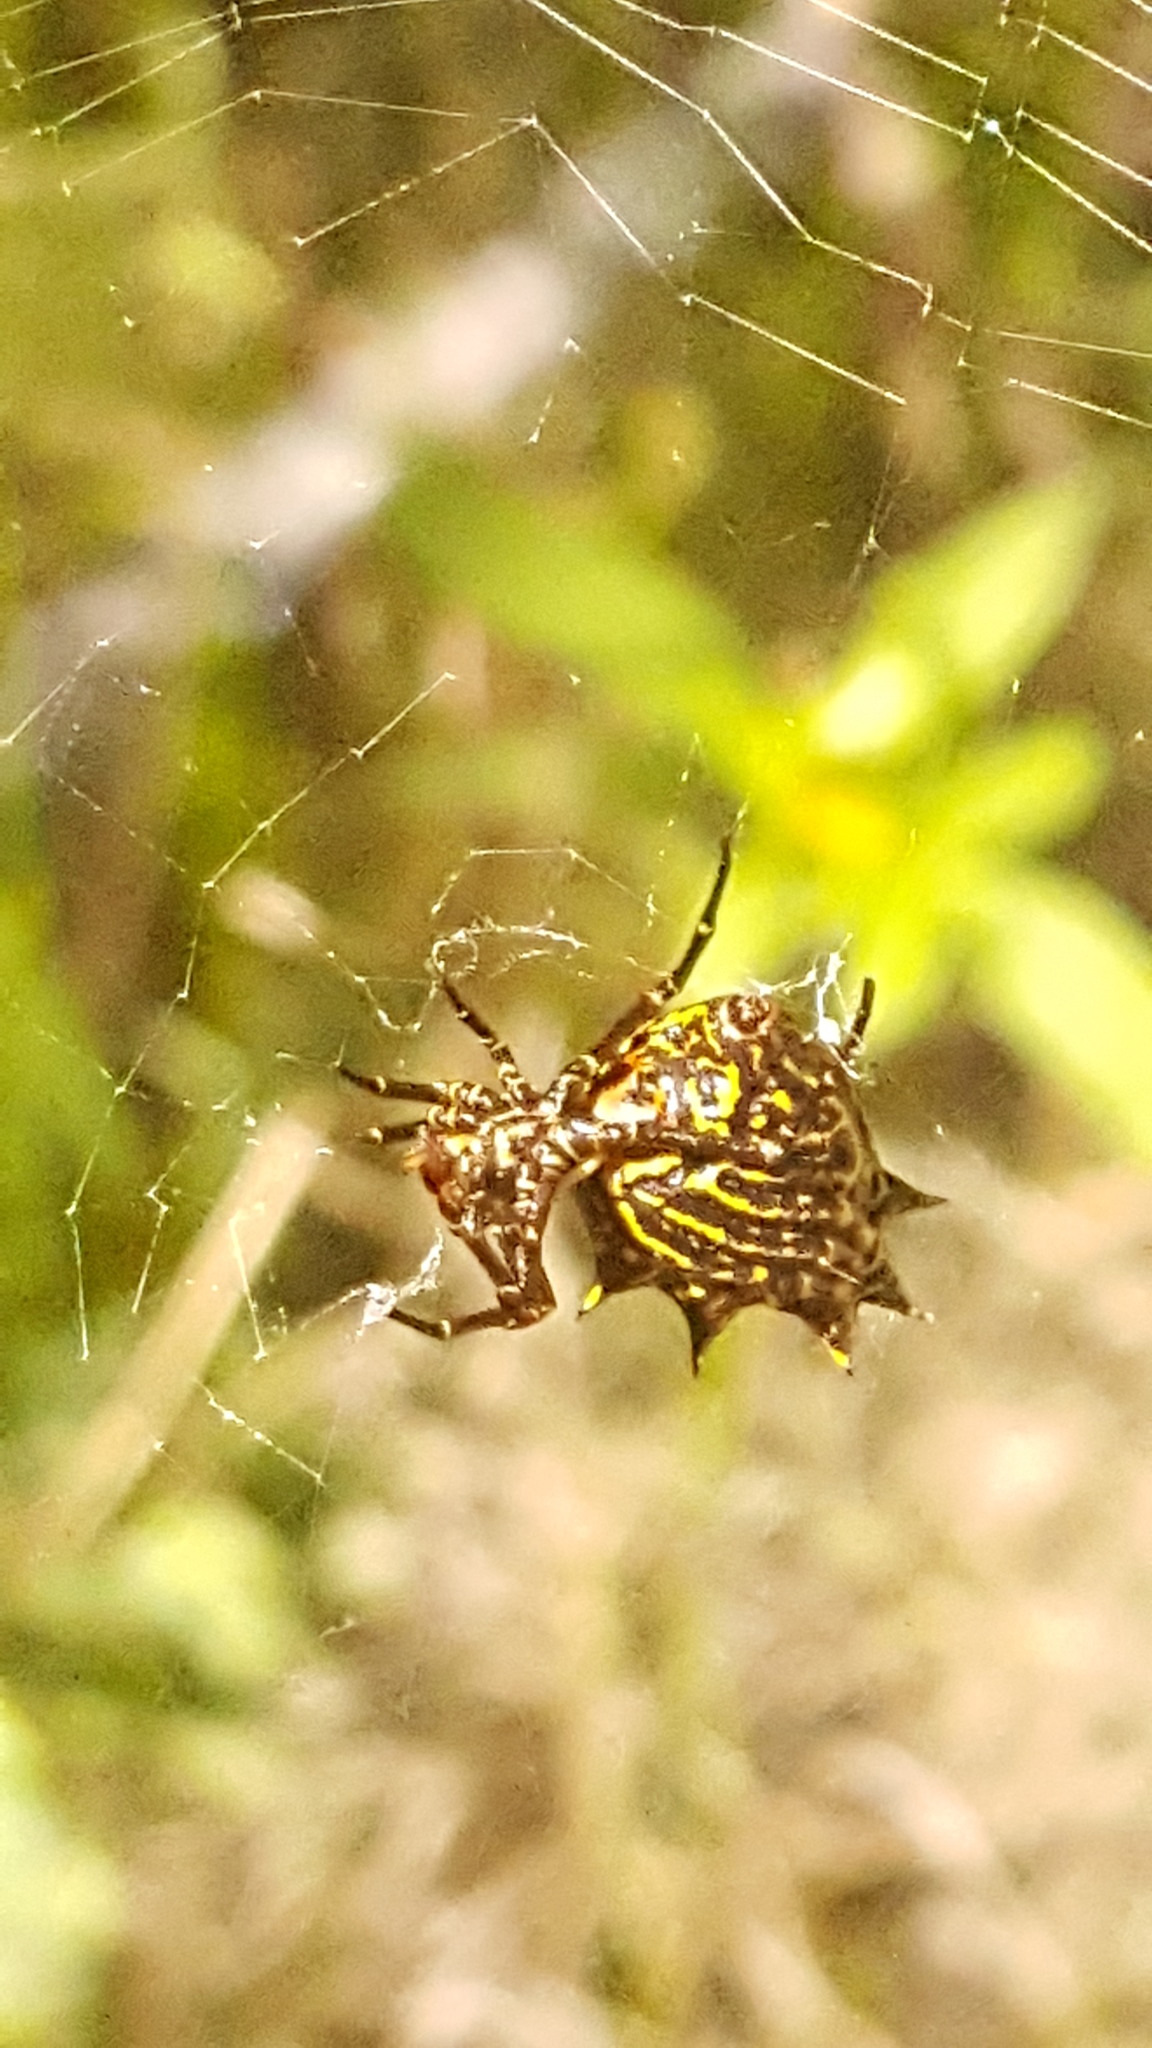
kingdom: Animalia
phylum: Arthropoda
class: Arachnida
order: Araneae
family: Araneidae
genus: Micrathena
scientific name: Micrathena gracilis
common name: Orb weavers
